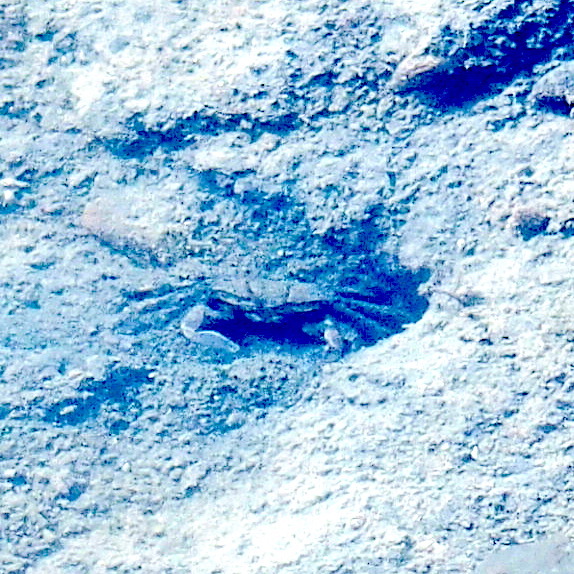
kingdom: Animalia
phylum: Arthropoda
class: Malacostraca
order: Decapoda
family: Macrophthalmidae
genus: Macrophthalmus
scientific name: Macrophthalmus banzai
